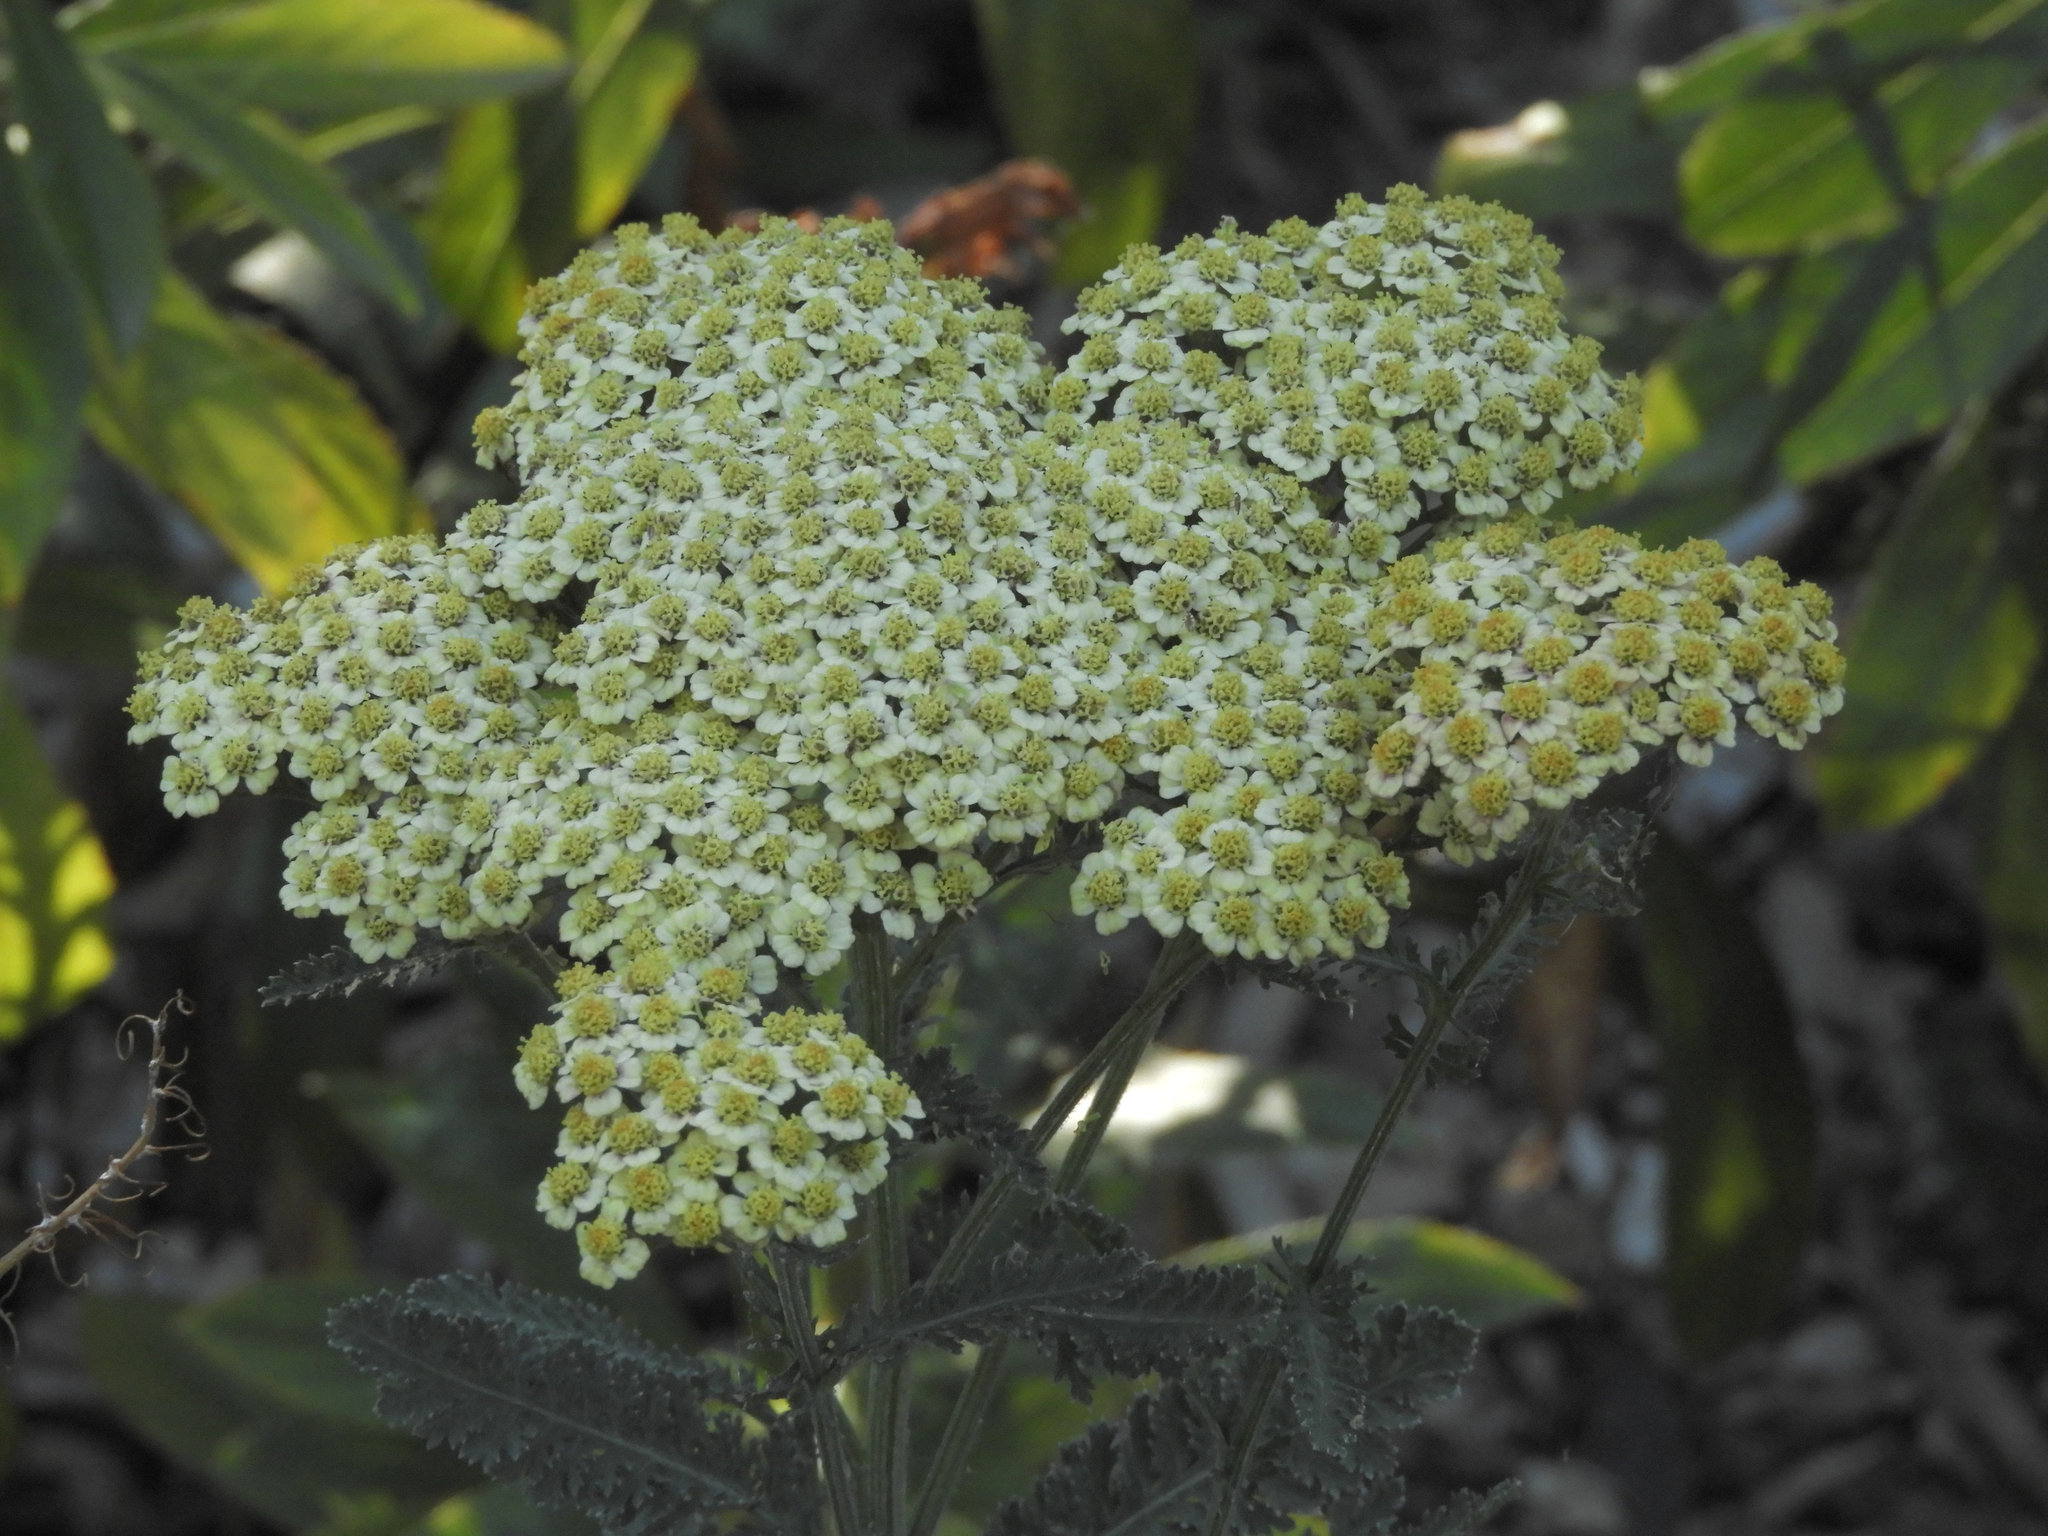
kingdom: Plantae
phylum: Tracheophyta
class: Magnoliopsida
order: Asterales
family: Asteraceae
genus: Achillea
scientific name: Achillea millefolium
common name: Yarrow
